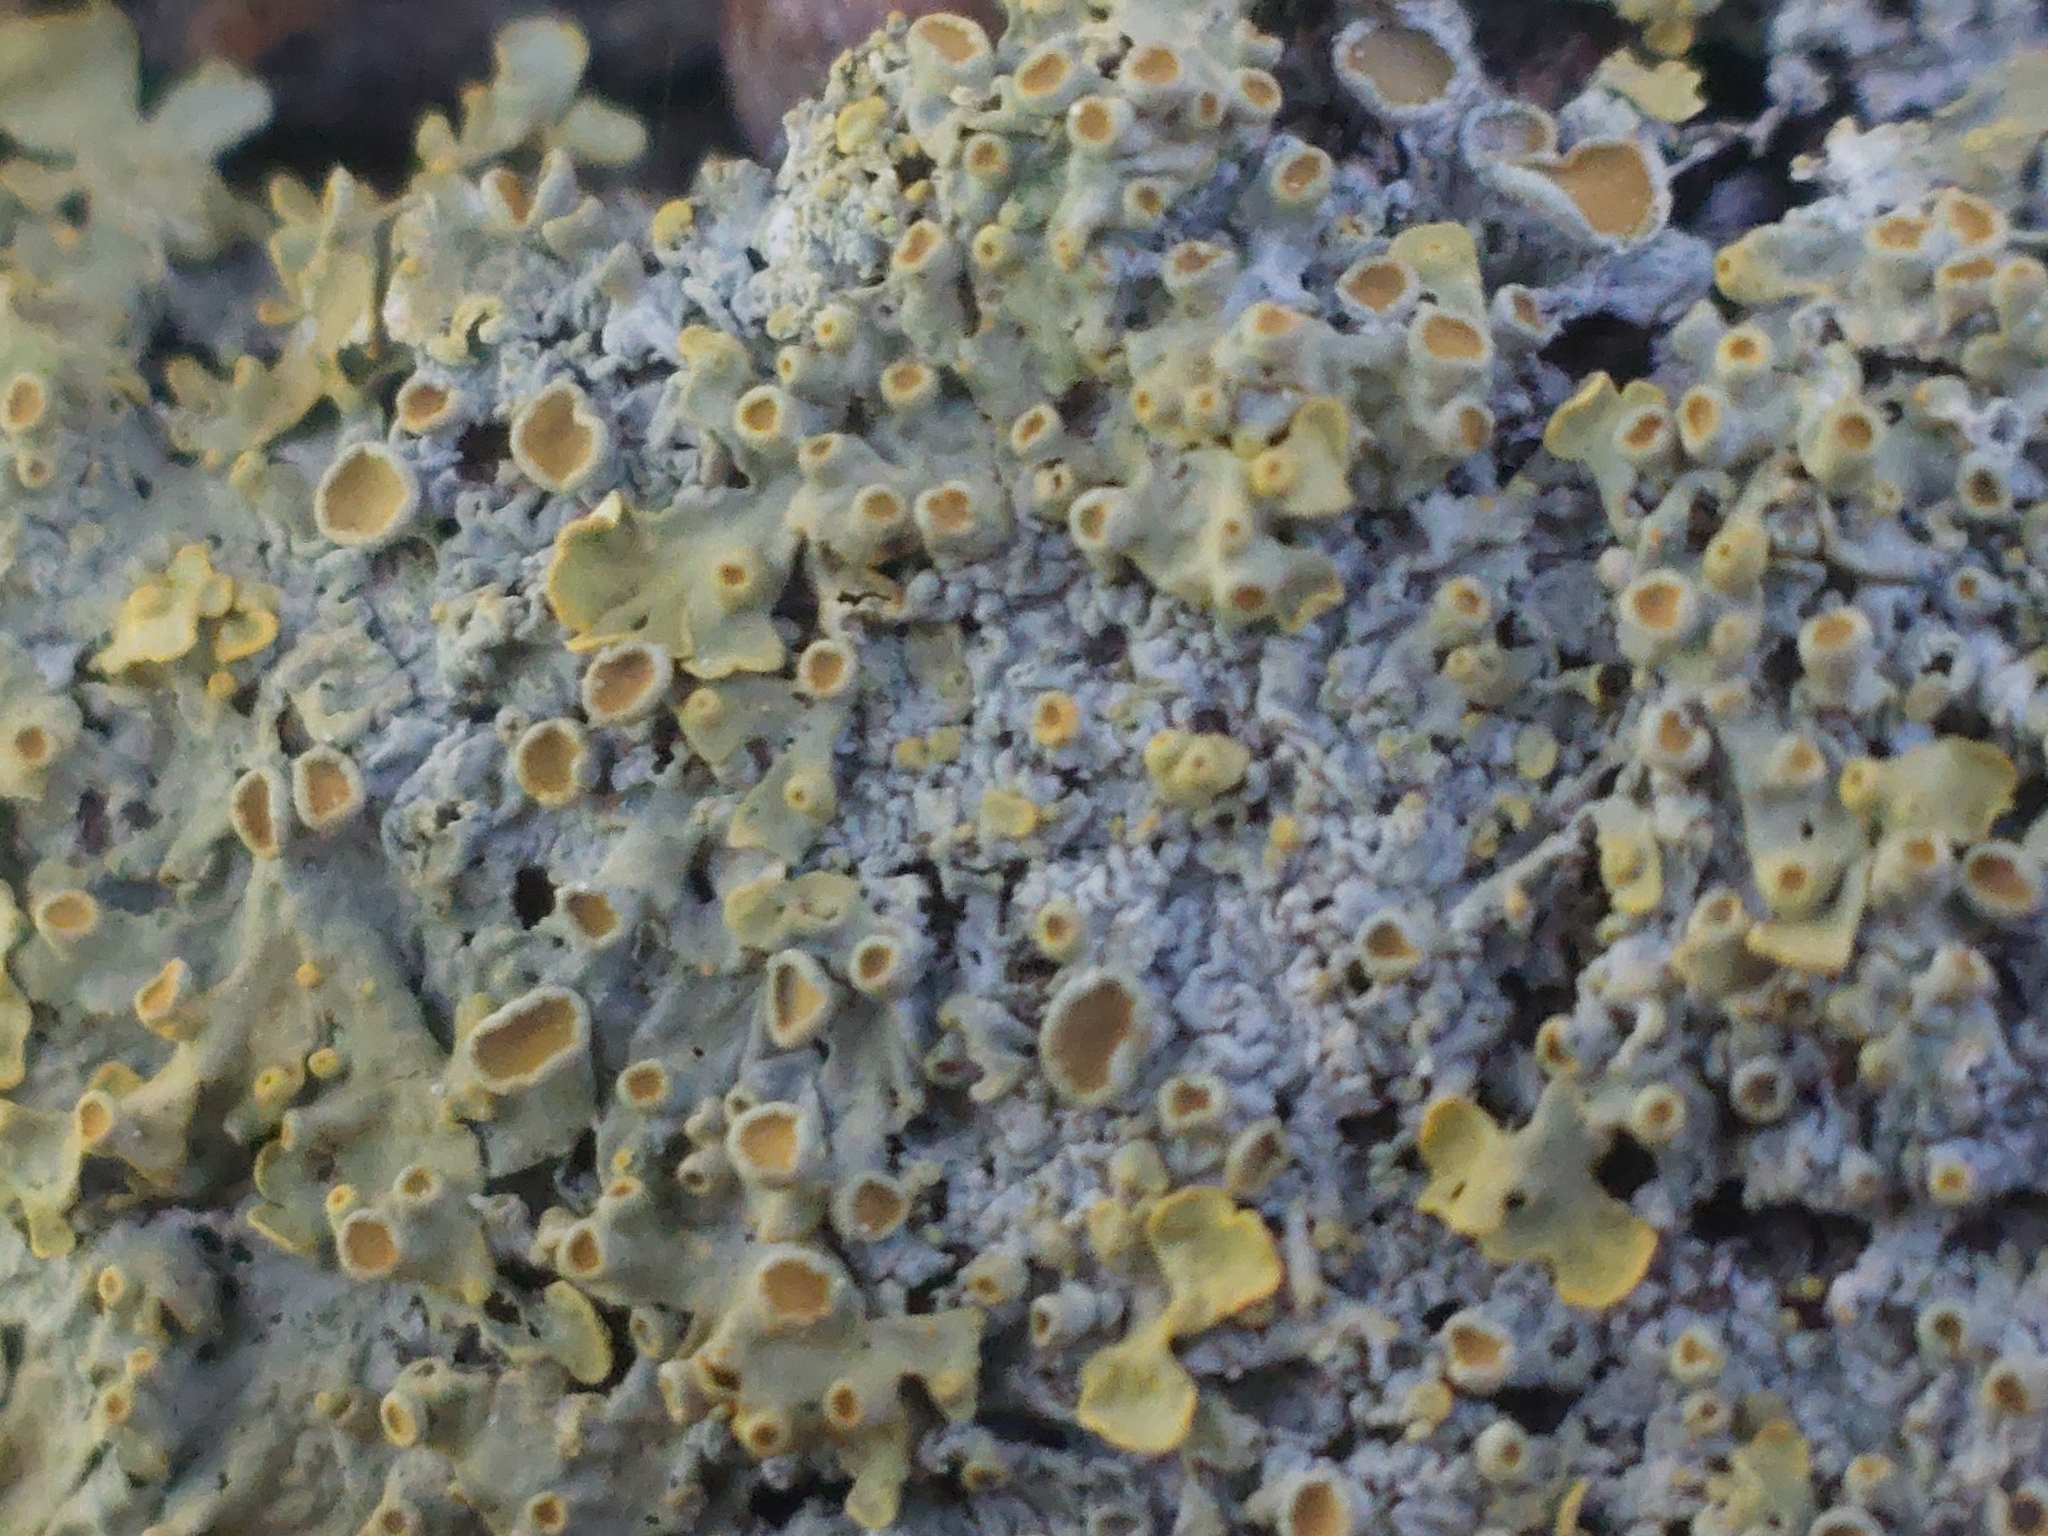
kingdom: Fungi
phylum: Ascomycota
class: Lecanoromycetes
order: Teloschistales
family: Teloschistaceae
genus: Xanthoria
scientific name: Xanthoria parietina
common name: Common orange lichen
